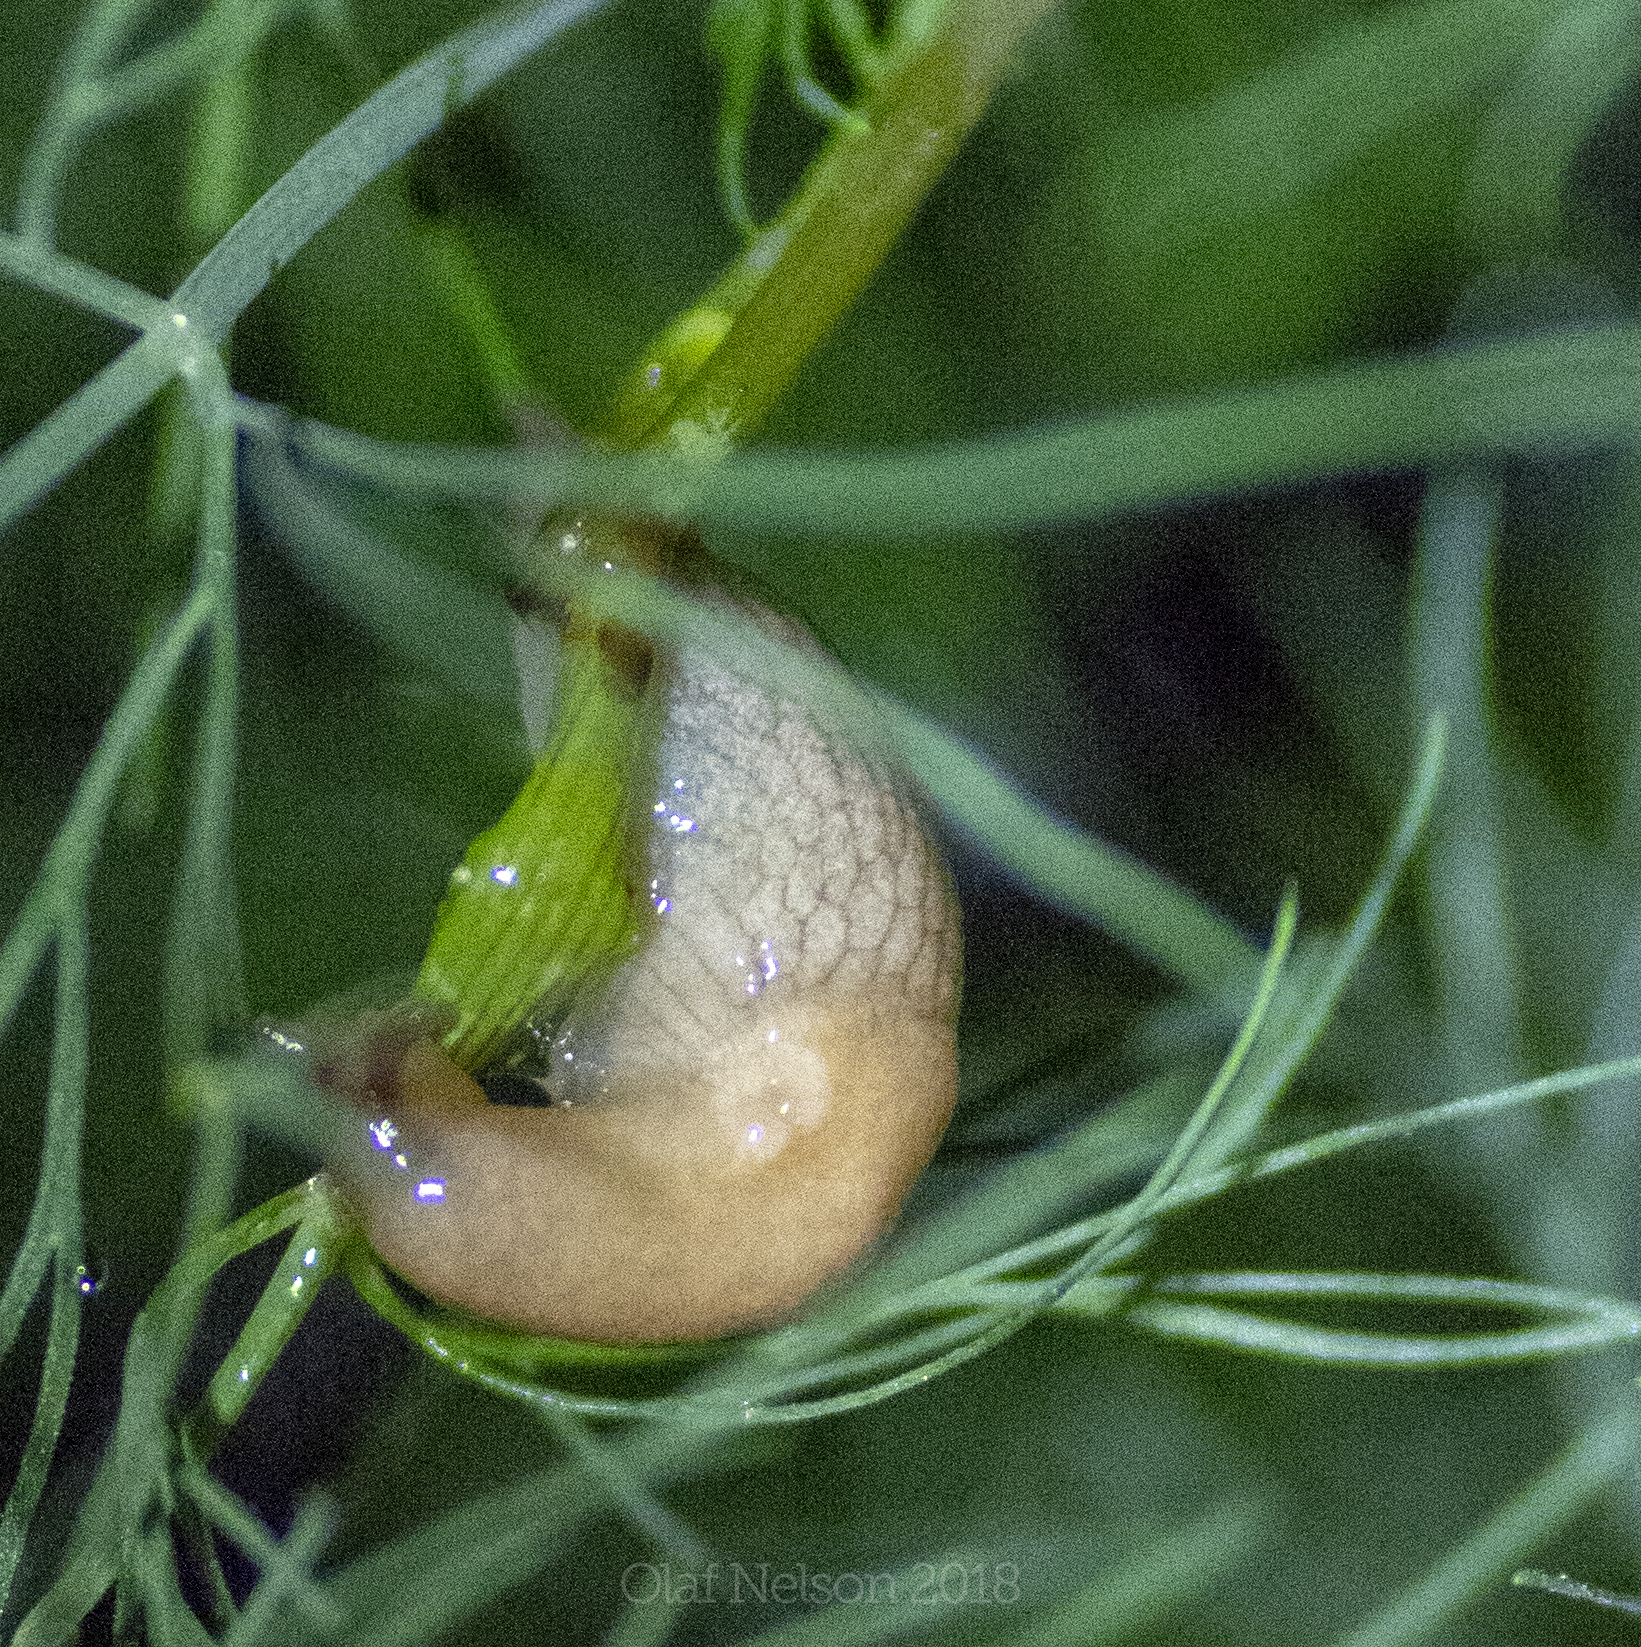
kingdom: Animalia
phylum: Mollusca
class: Gastropoda
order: Stylommatophora
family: Agriolimacidae
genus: Deroceras
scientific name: Deroceras reticulatum
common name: Gray field slug
